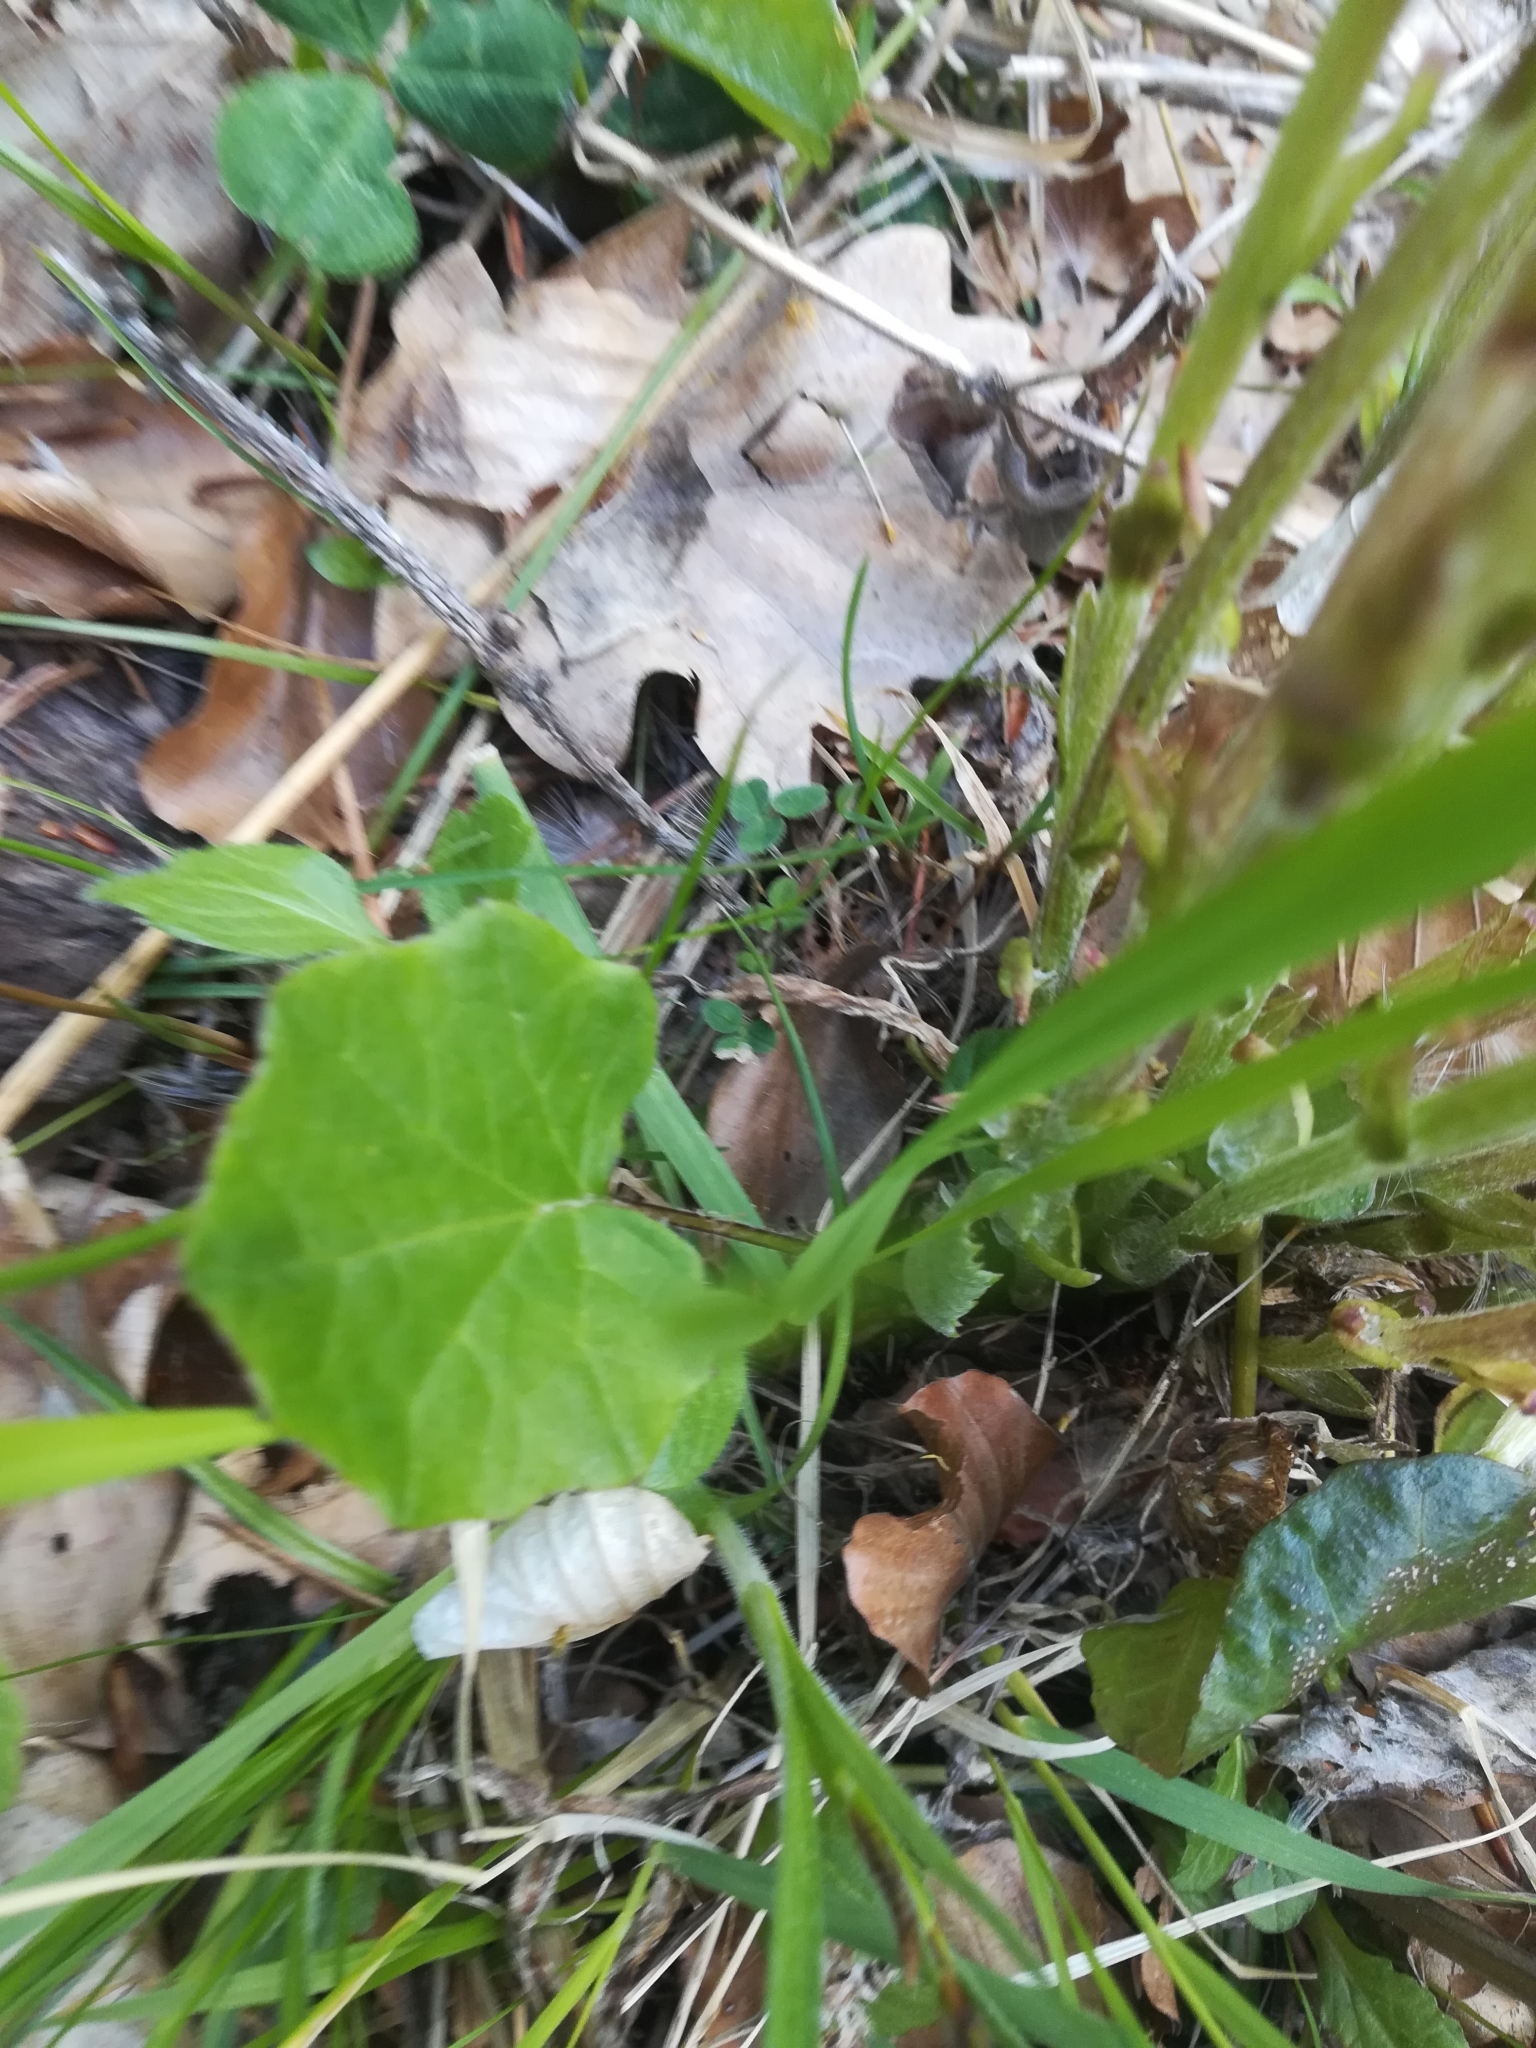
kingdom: Plantae
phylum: Tracheophyta
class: Magnoliopsida
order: Asterales
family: Asteraceae
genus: Tussilago
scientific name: Tussilago farfara
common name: Coltsfoot
